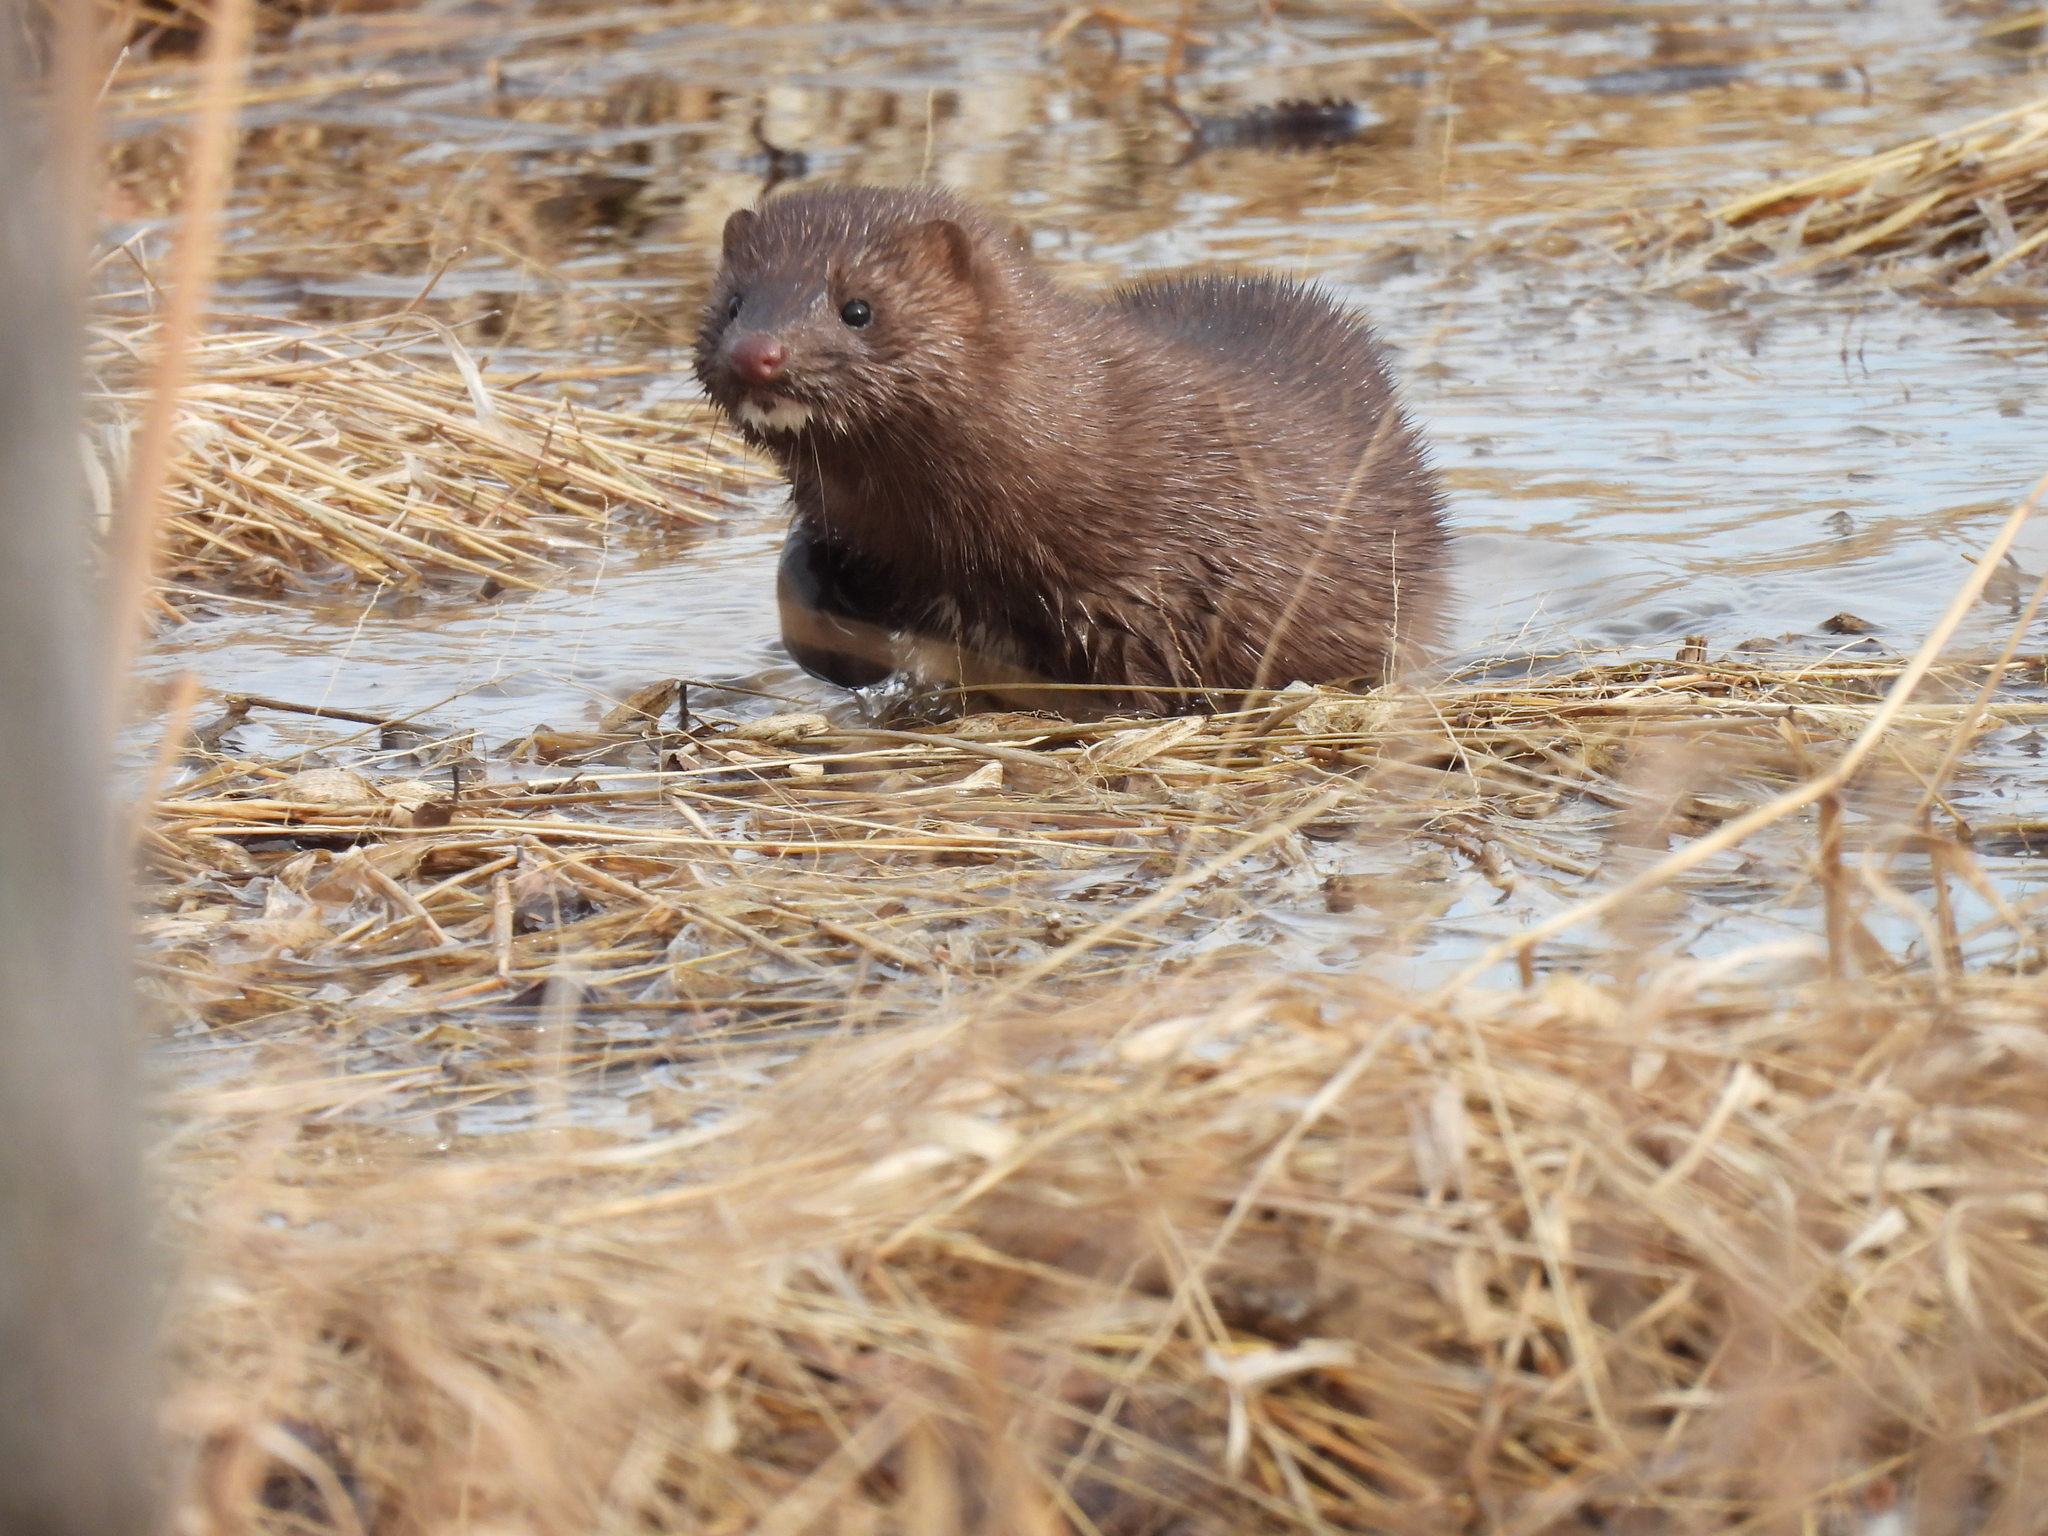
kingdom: Animalia
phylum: Chordata
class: Mammalia
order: Carnivora
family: Mustelidae
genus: Mustela
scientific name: Mustela
